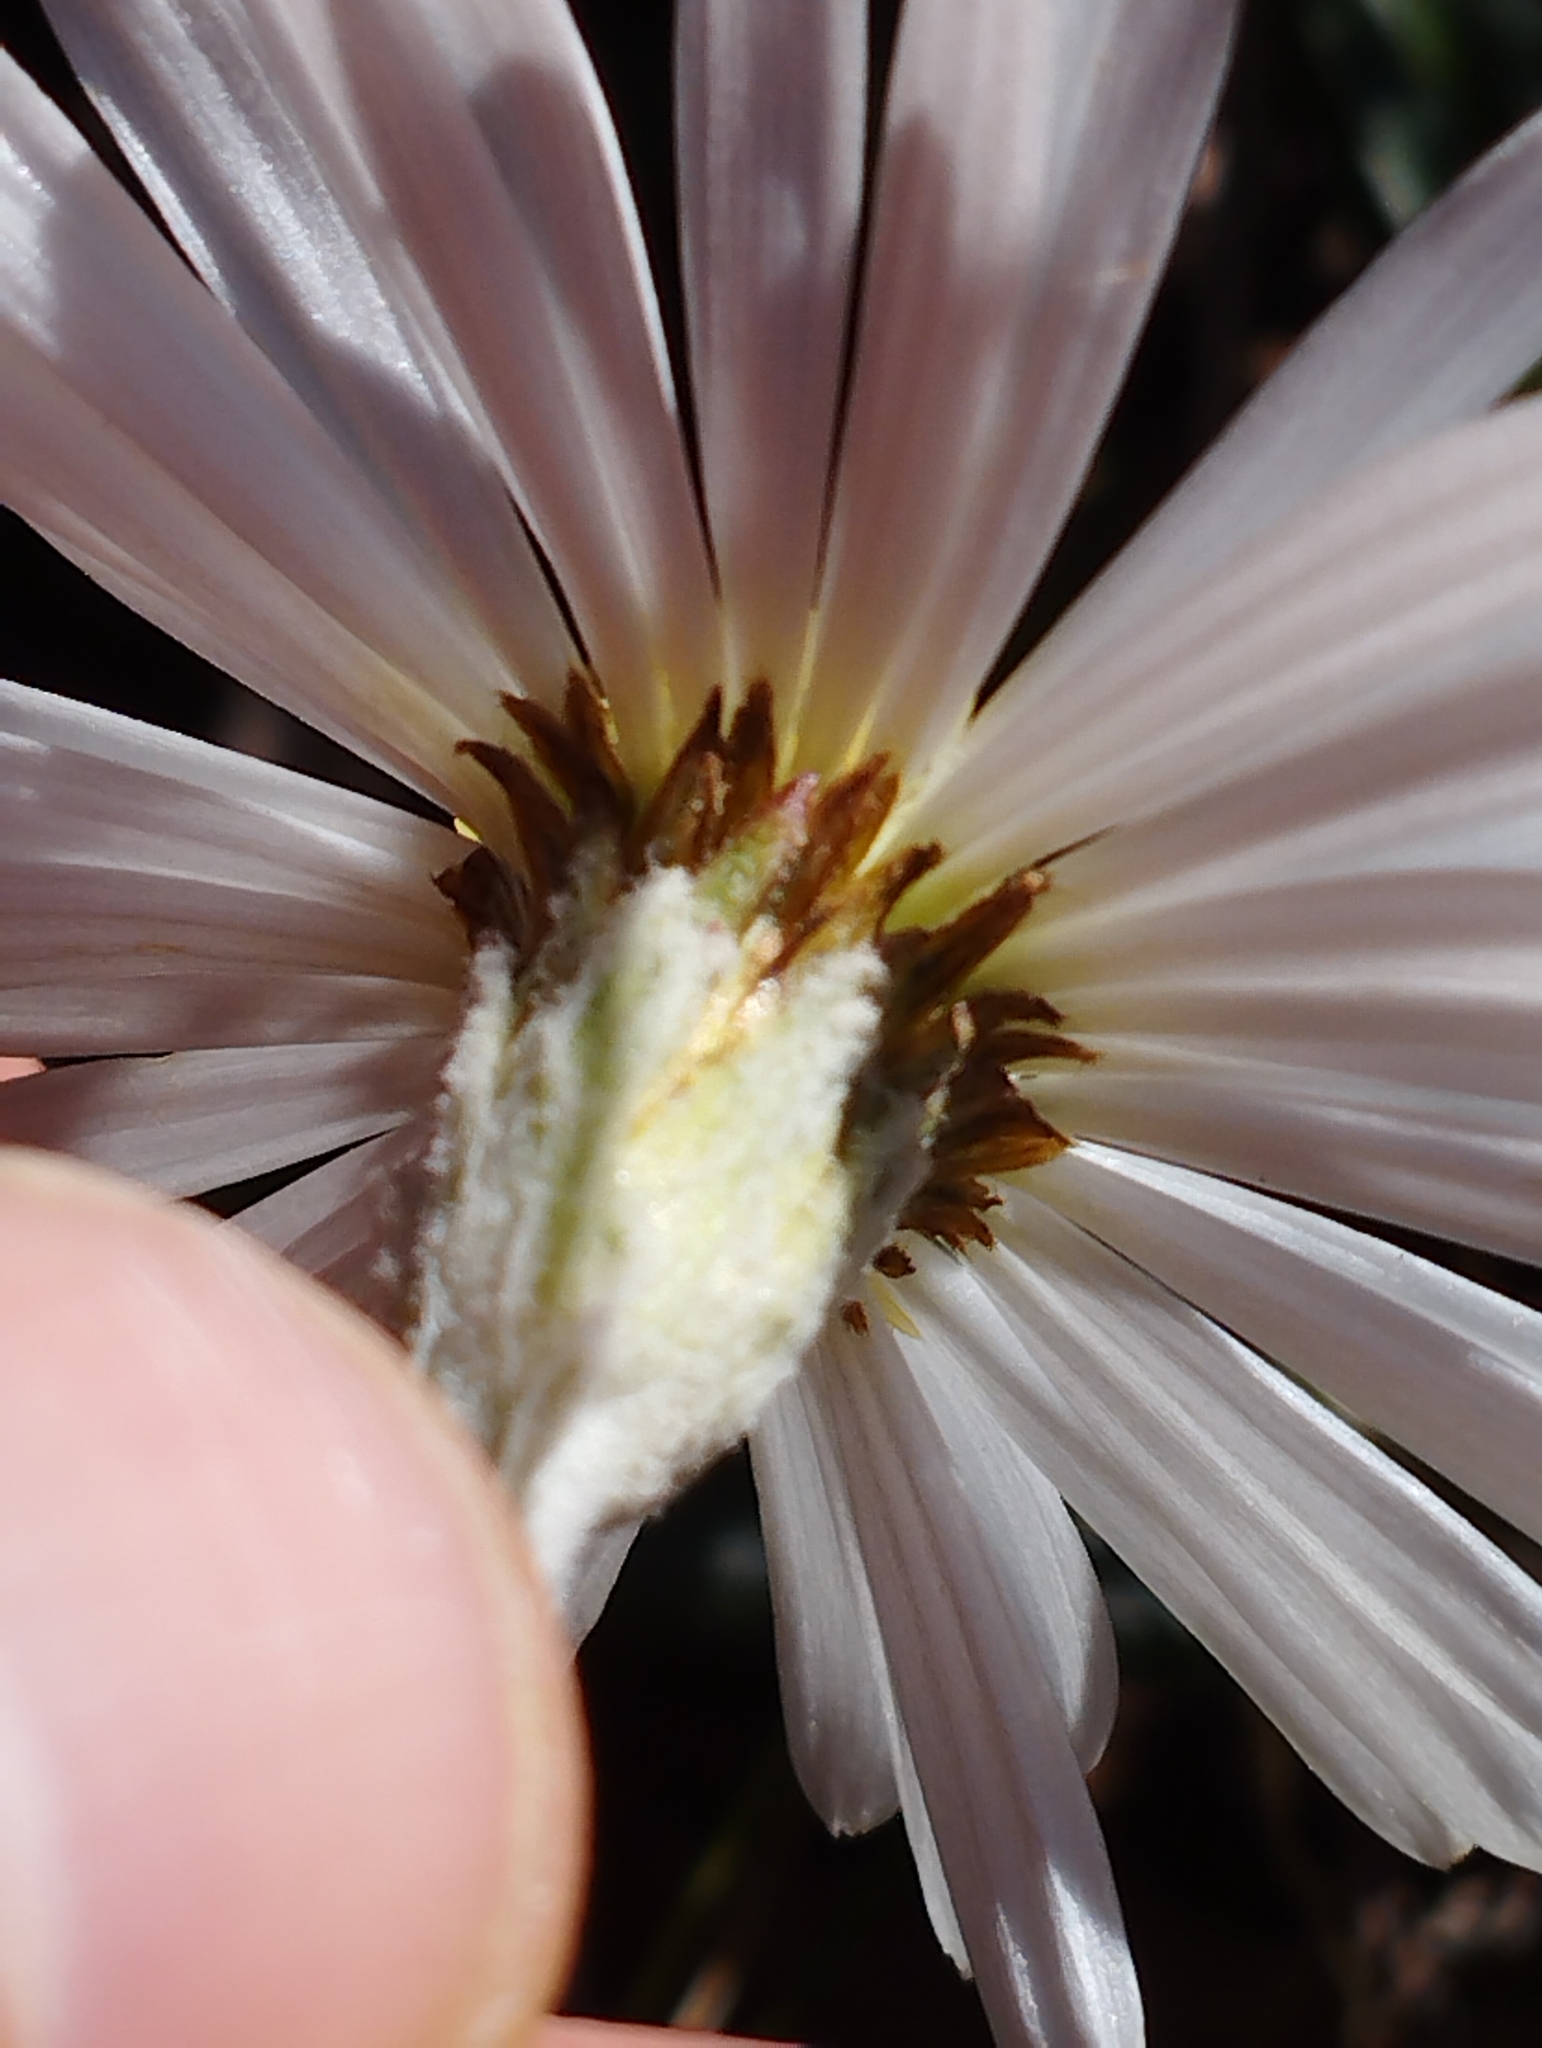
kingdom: Plantae
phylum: Tracheophyta
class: Magnoliopsida
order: Asterales
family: Asteraceae
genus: Celmisia
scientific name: Celmisia dubia
